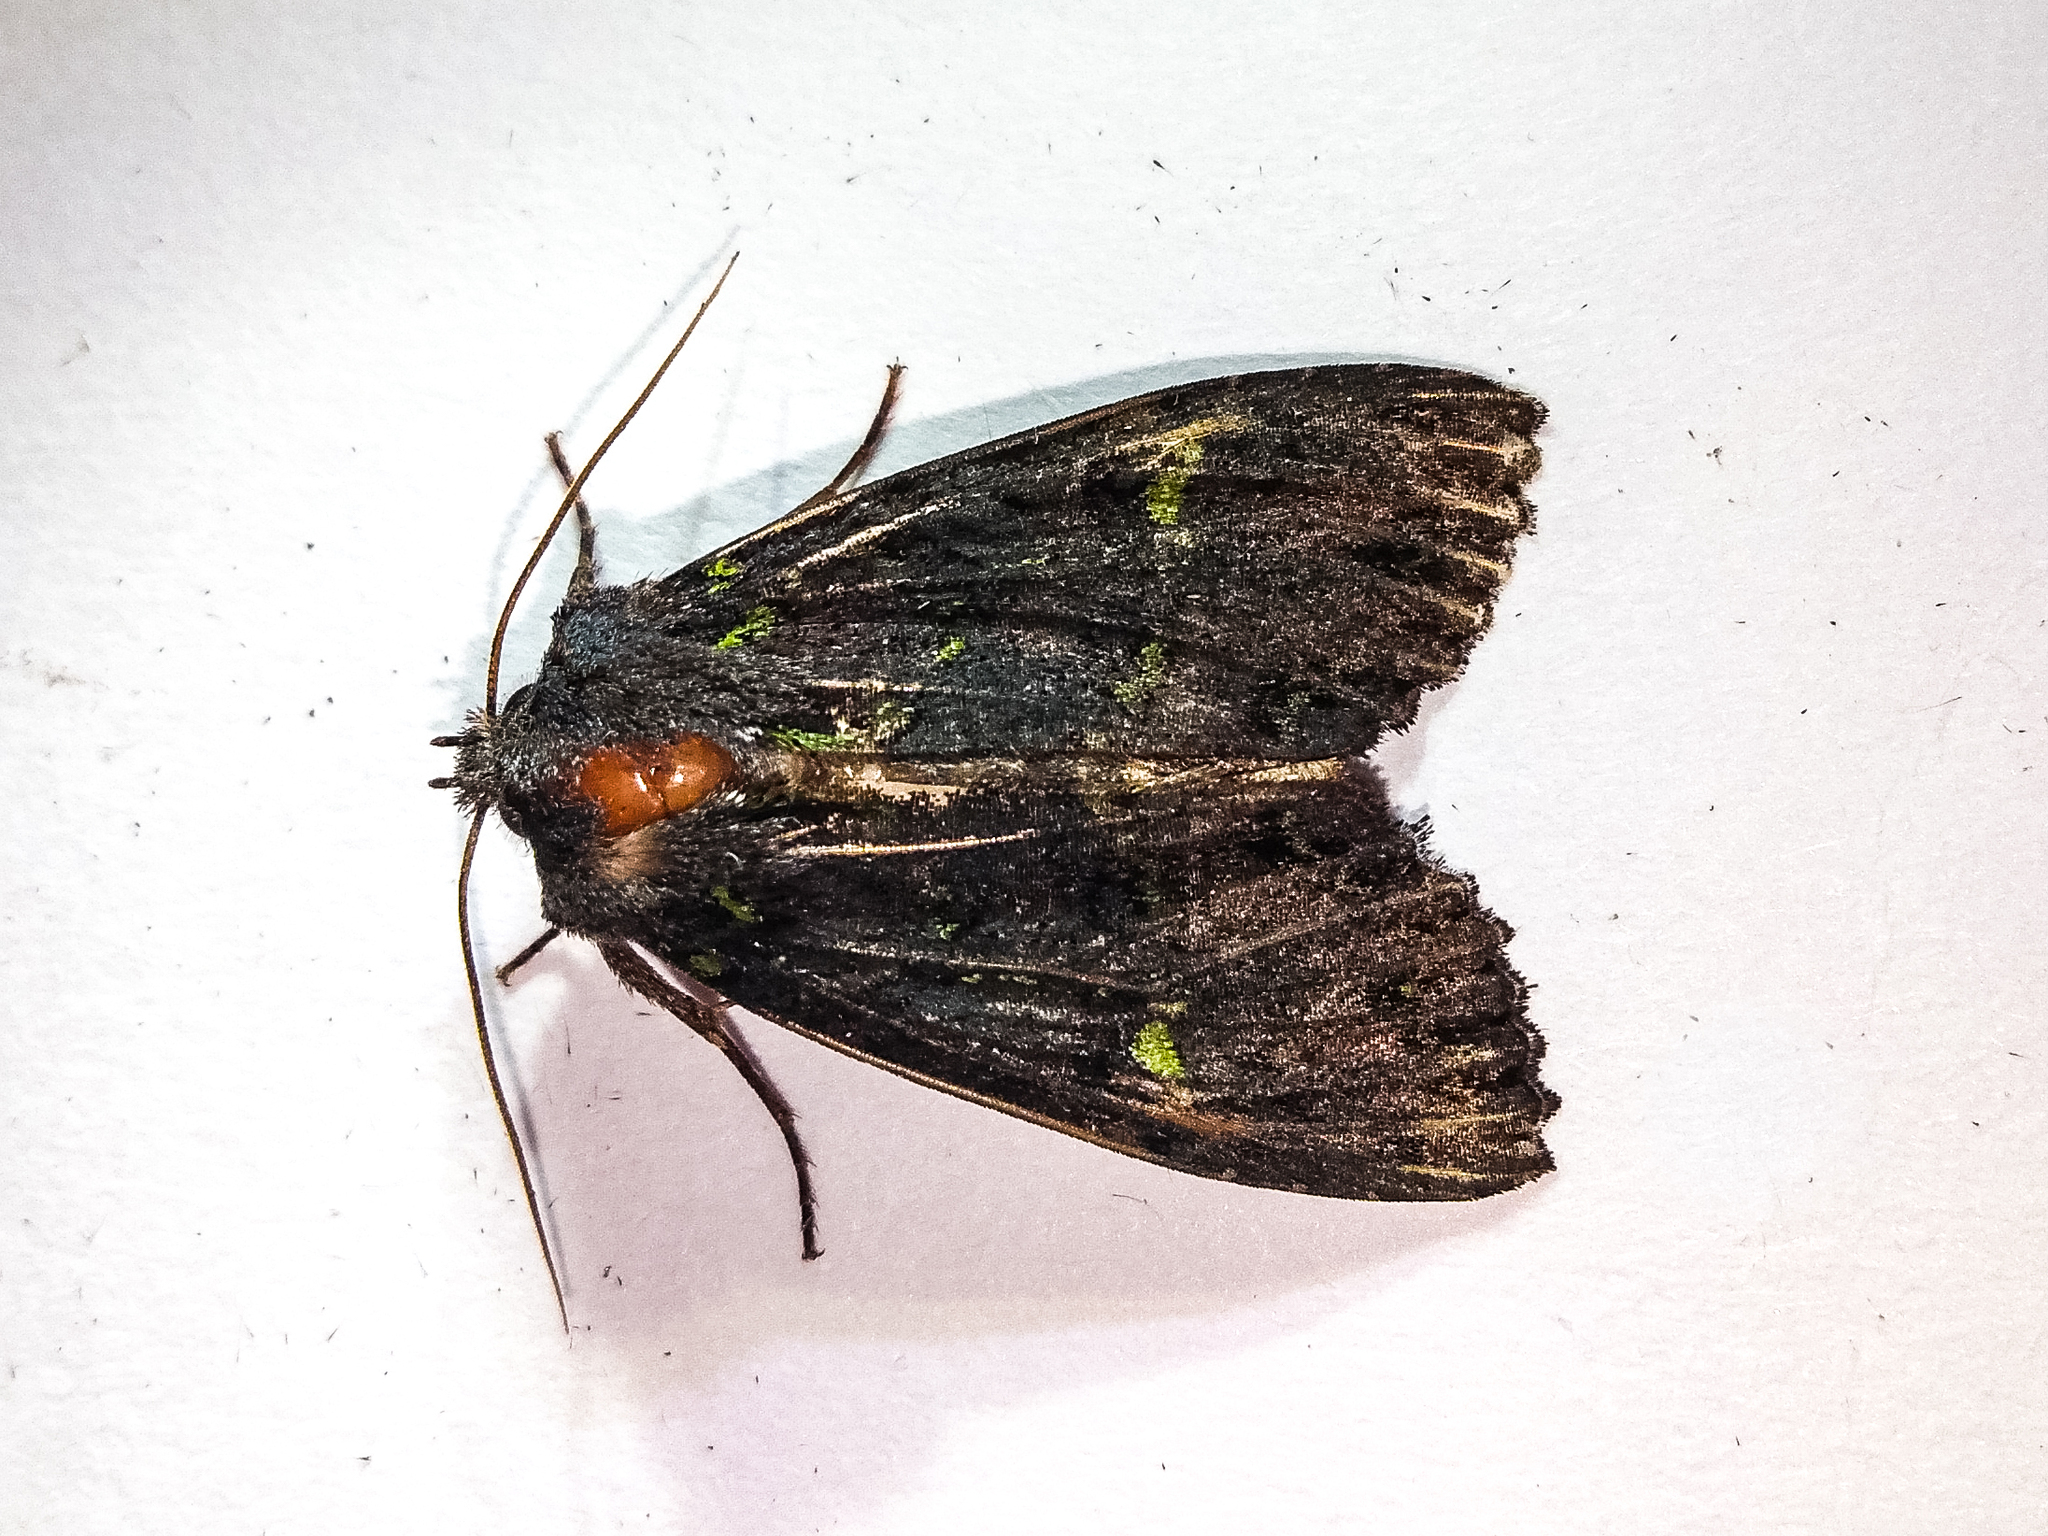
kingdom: Animalia
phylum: Arthropoda
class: Insecta
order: Lepidoptera
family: Noctuidae
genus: Meterana
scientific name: Meterana merope
